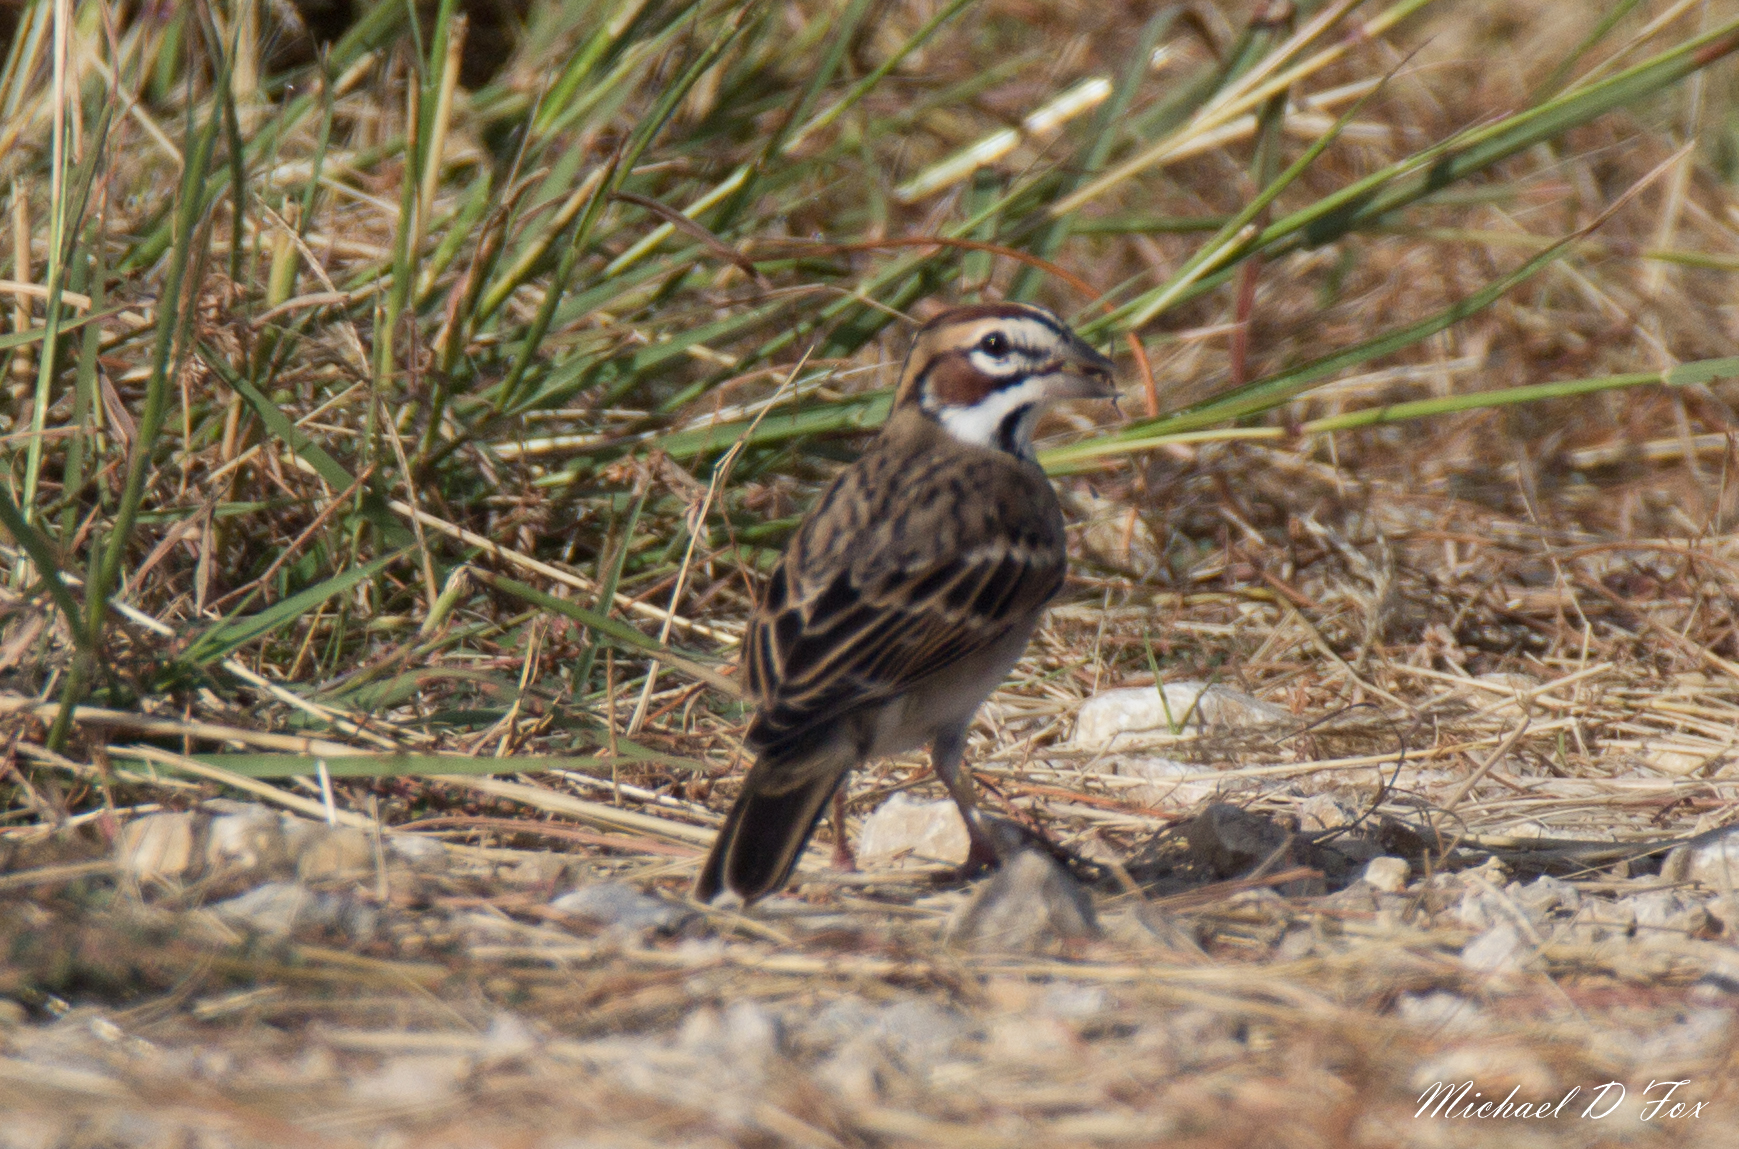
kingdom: Animalia
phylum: Chordata
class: Aves
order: Passeriformes
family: Passerellidae
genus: Chondestes
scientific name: Chondestes grammacus
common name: Lark sparrow
